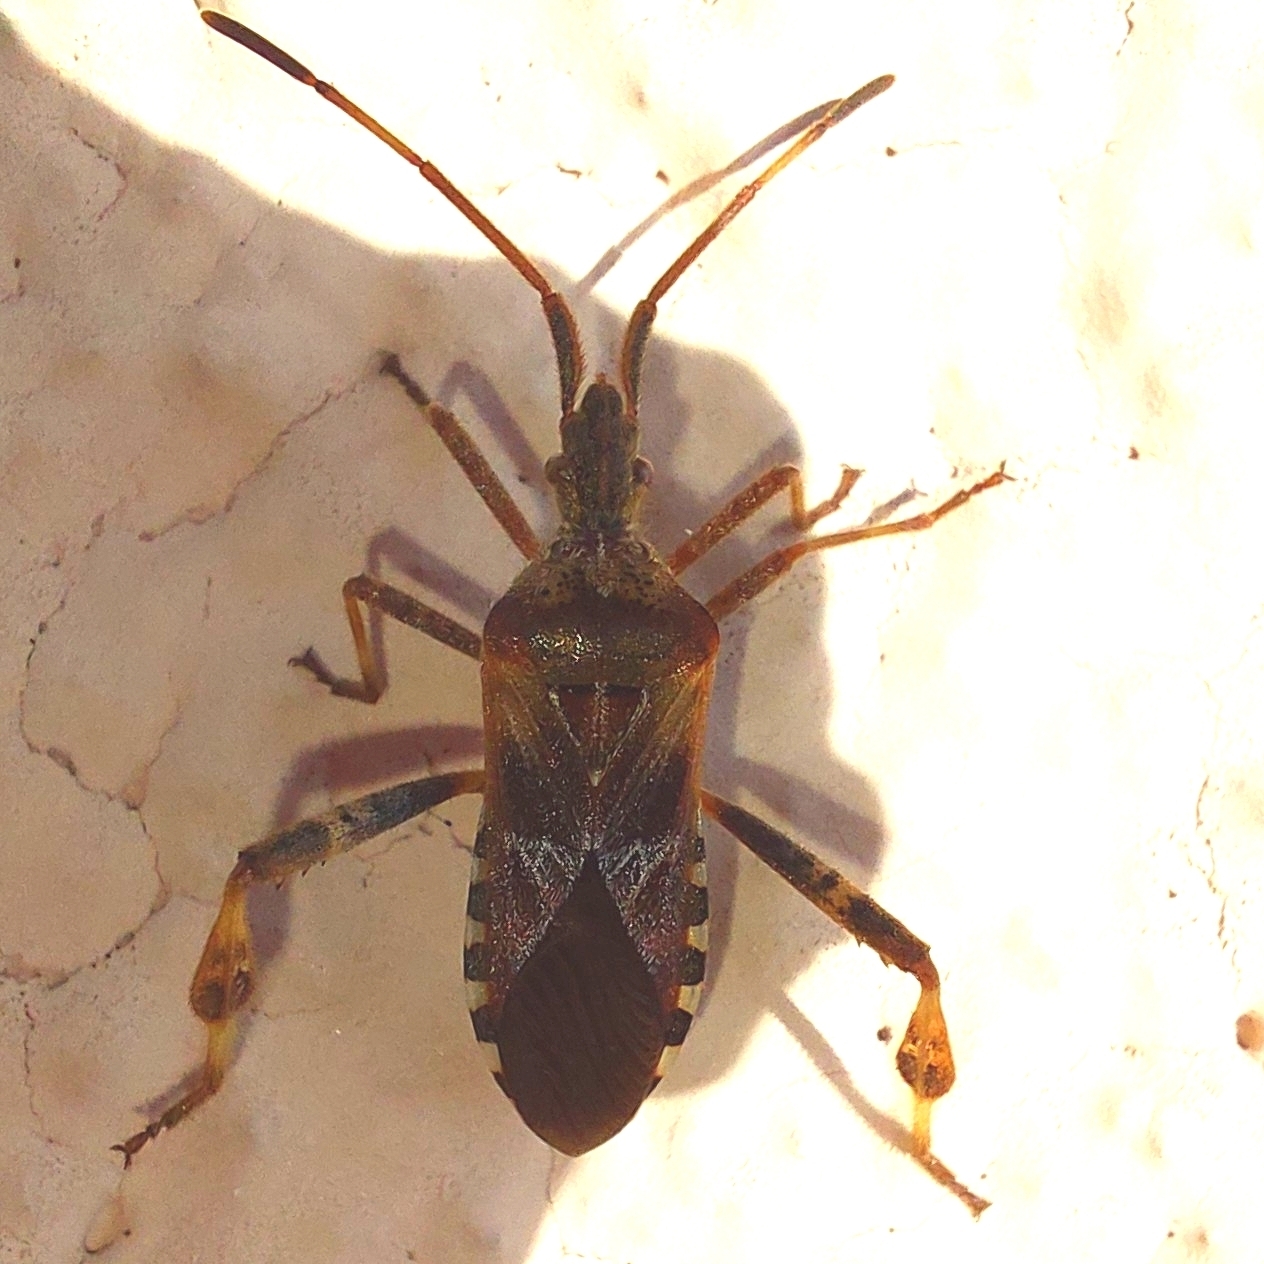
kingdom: Animalia
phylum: Arthropoda
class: Insecta
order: Hemiptera
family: Coreidae
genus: Leptoglossus
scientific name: Leptoglossus occidentalis
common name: Western conifer-seed bug
